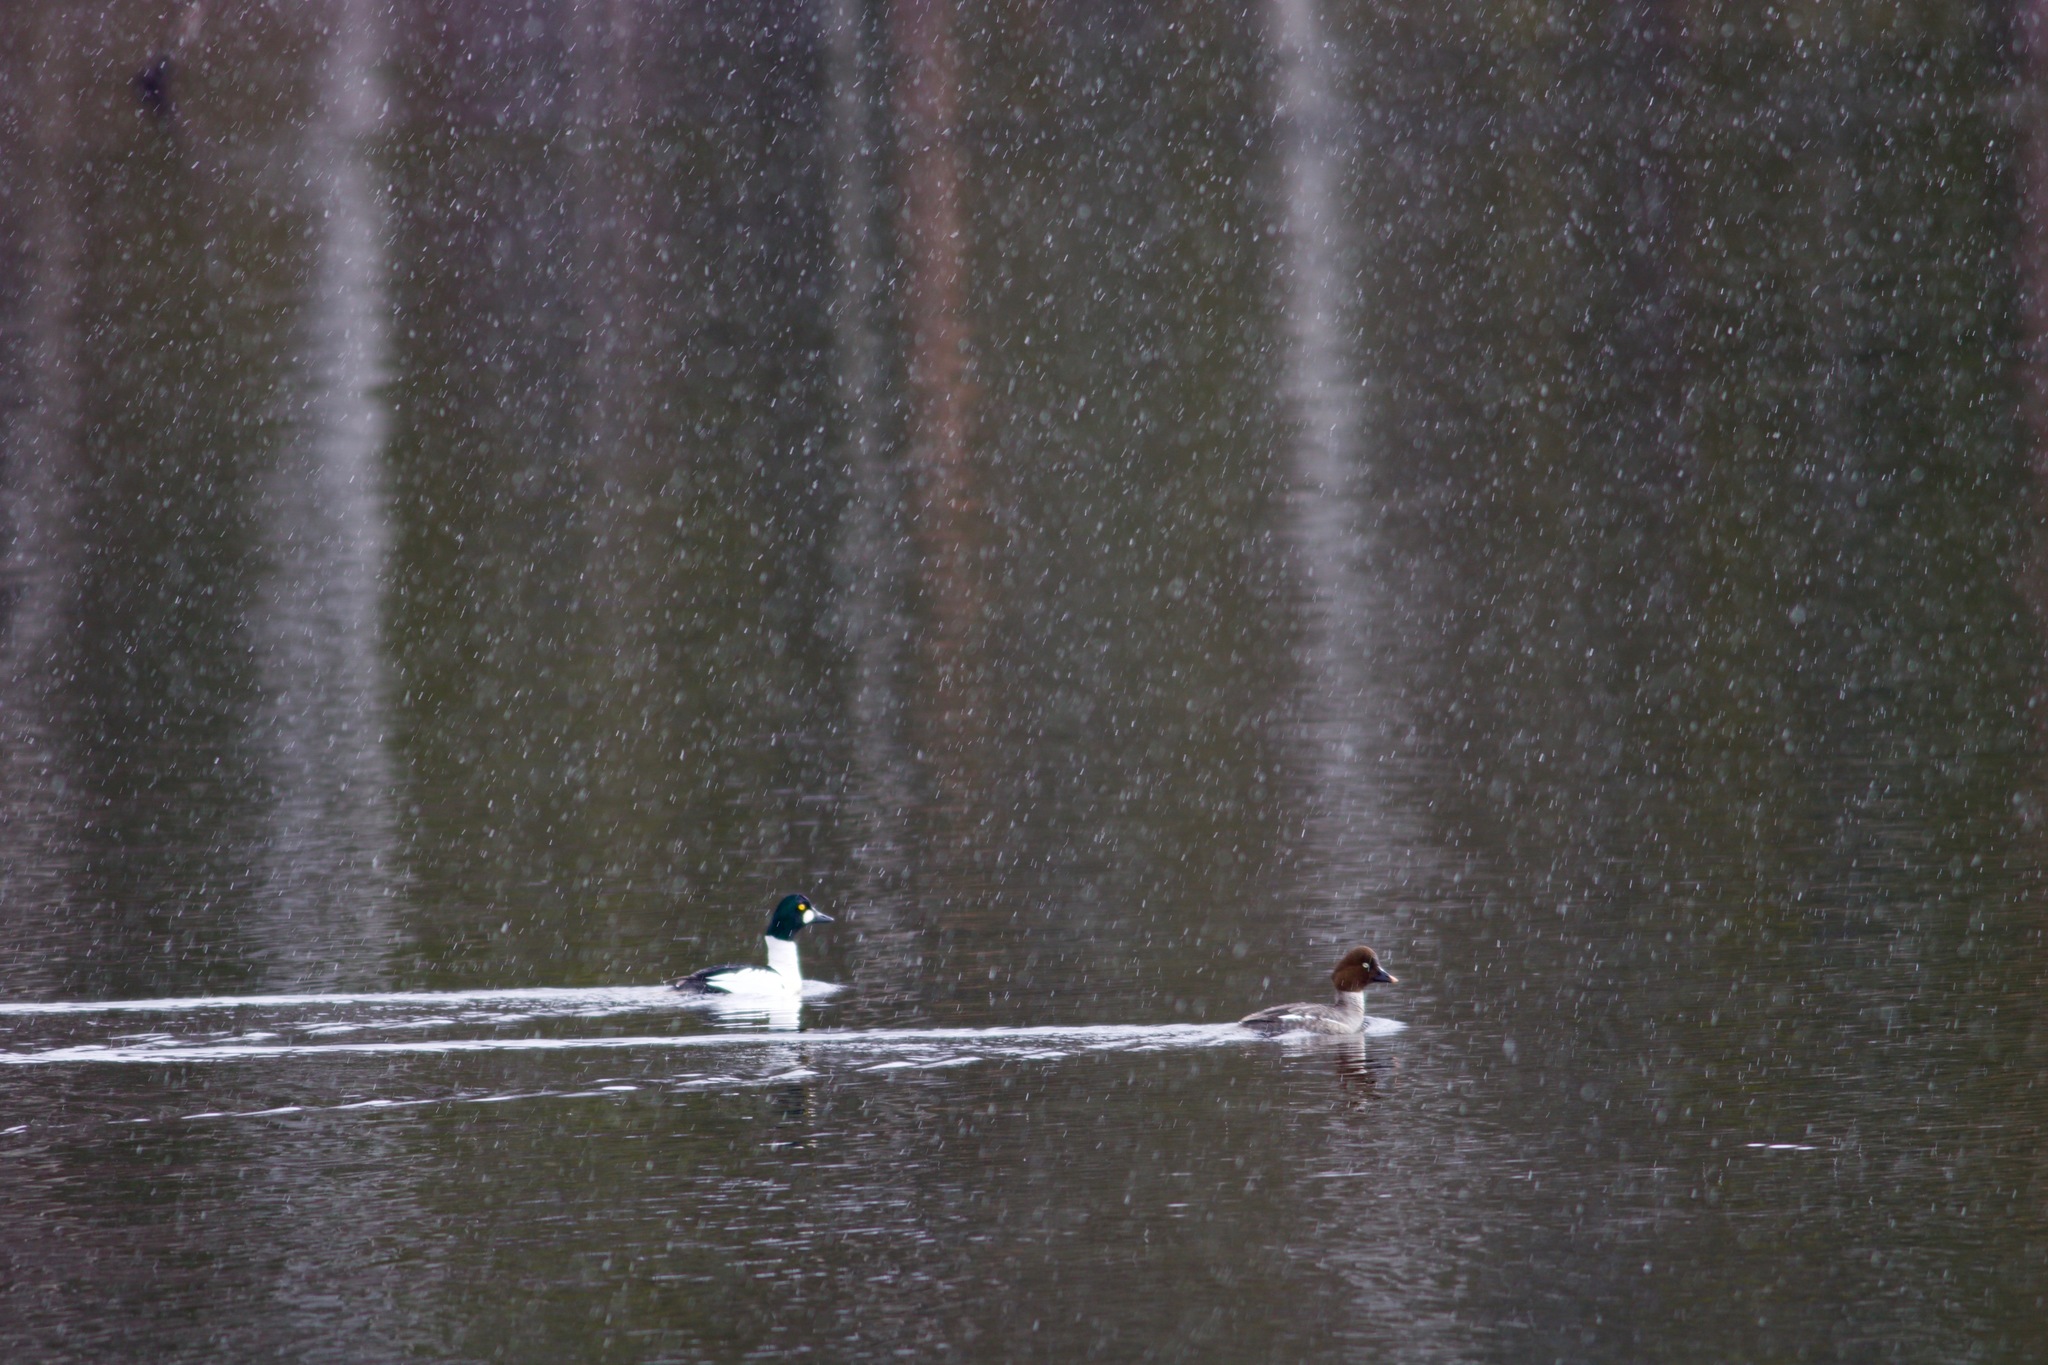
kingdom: Animalia
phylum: Chordata
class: Aves
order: Anseriformes
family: Anatidae
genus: Bucephala
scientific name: Bucephala clangula
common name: Common goldeneye
